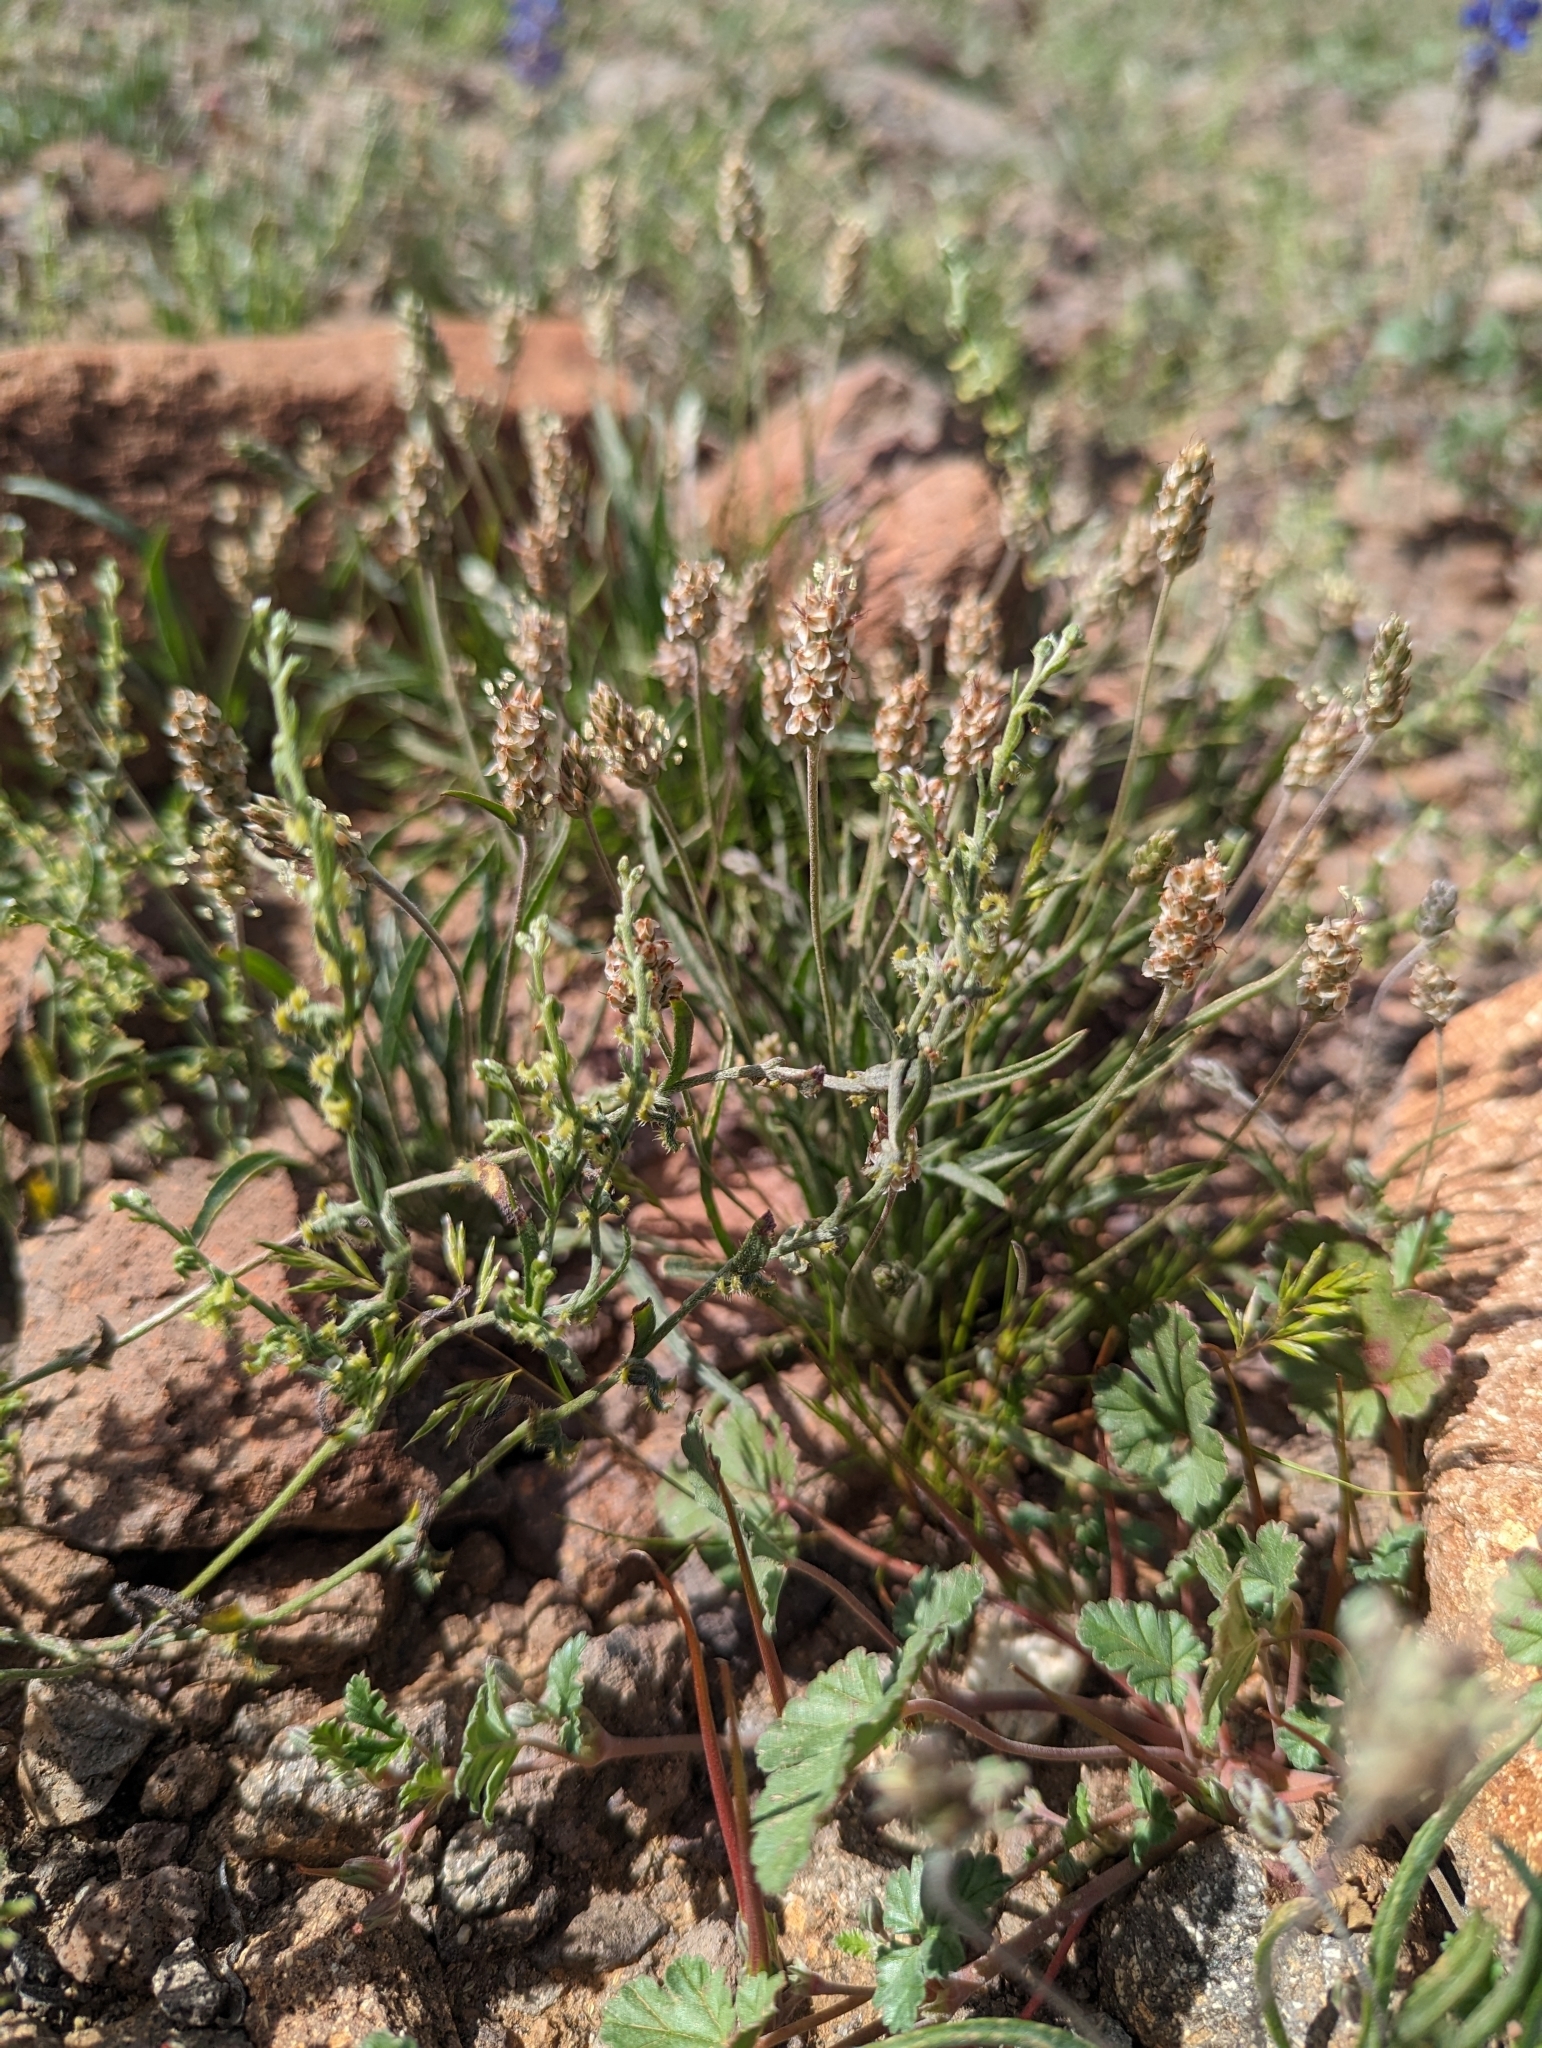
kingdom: Plantae
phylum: Tracheophyta
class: Magnoliopsida
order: Lamiales
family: Plantaginaceae
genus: Plantago
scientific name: Plantago ovata
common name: Blond plantain
